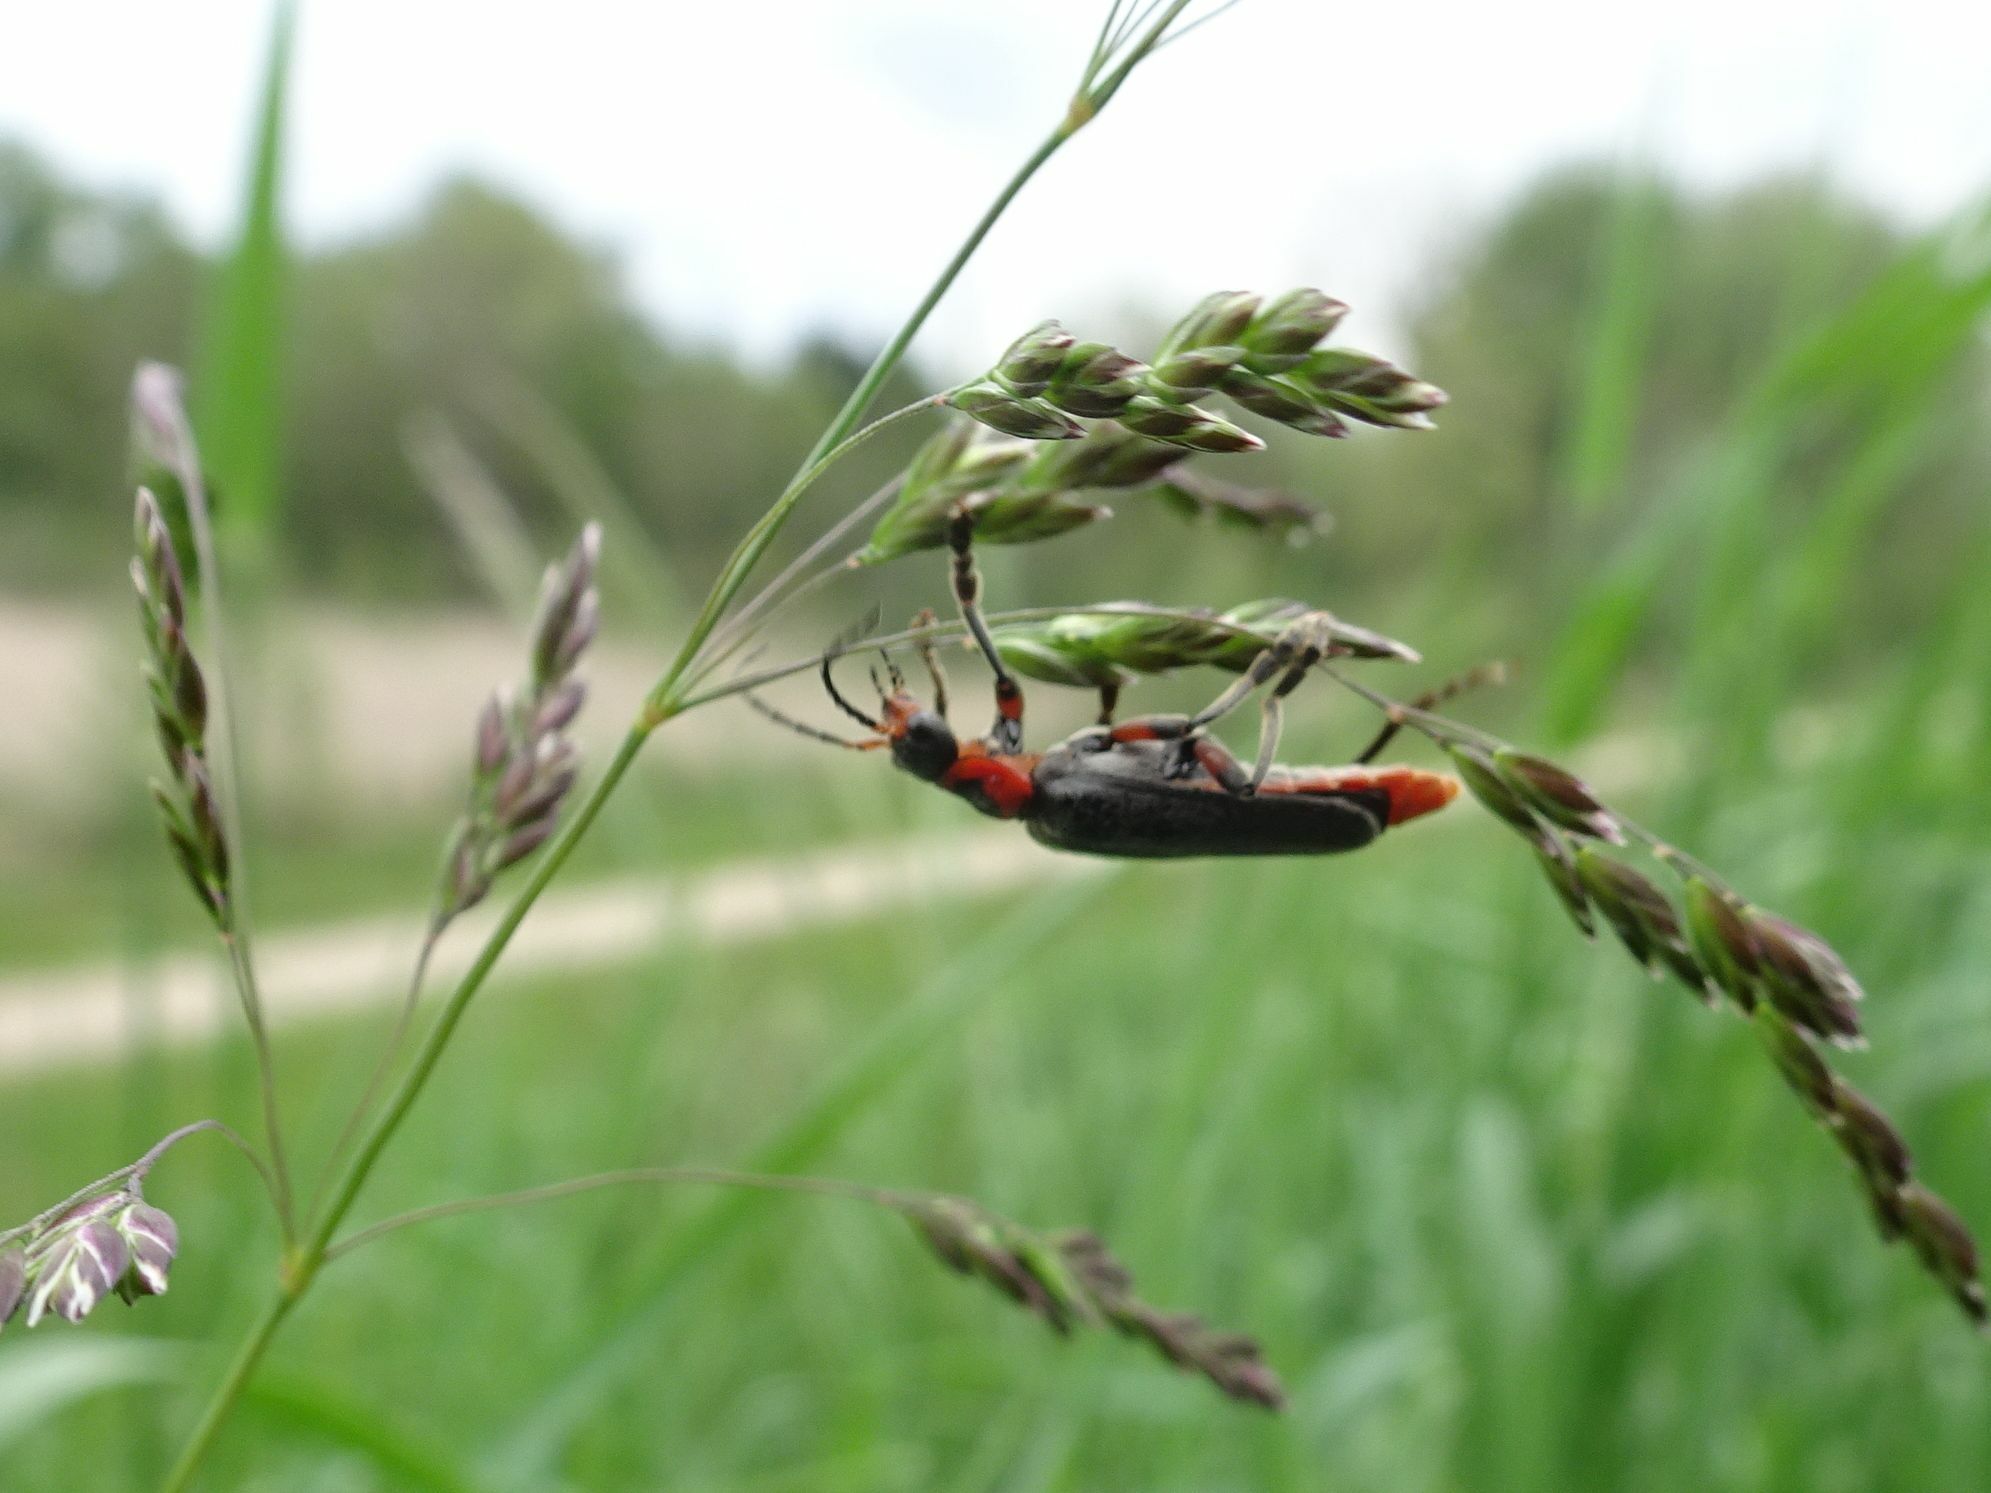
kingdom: Animalia
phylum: Arthropoda
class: Insecta
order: Coleoptera
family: Cantharidae
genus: Cantharis
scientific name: Cantharis rustica
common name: Soldier beetle
